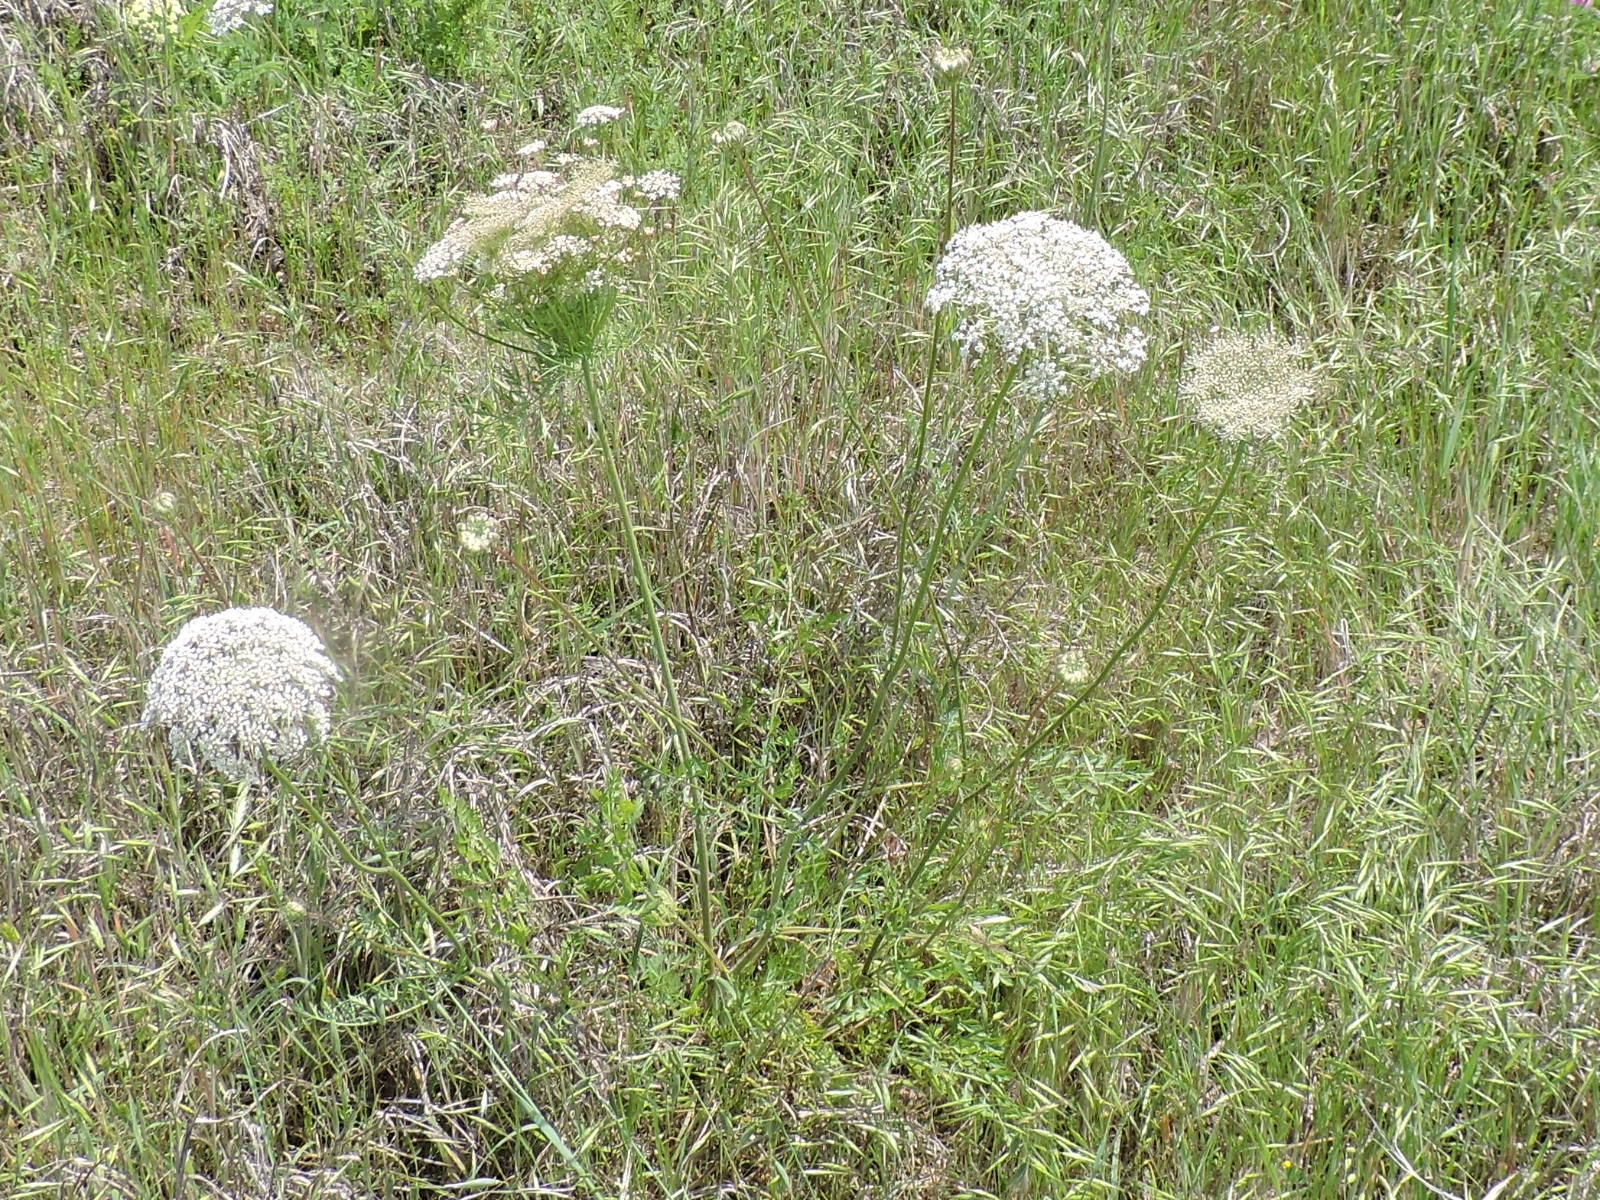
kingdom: Plantae
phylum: Tracheophyta
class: Magnoliopsida
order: Apiales
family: Apiaceae
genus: Daucus
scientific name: Daucus carota
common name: Wild carrot
